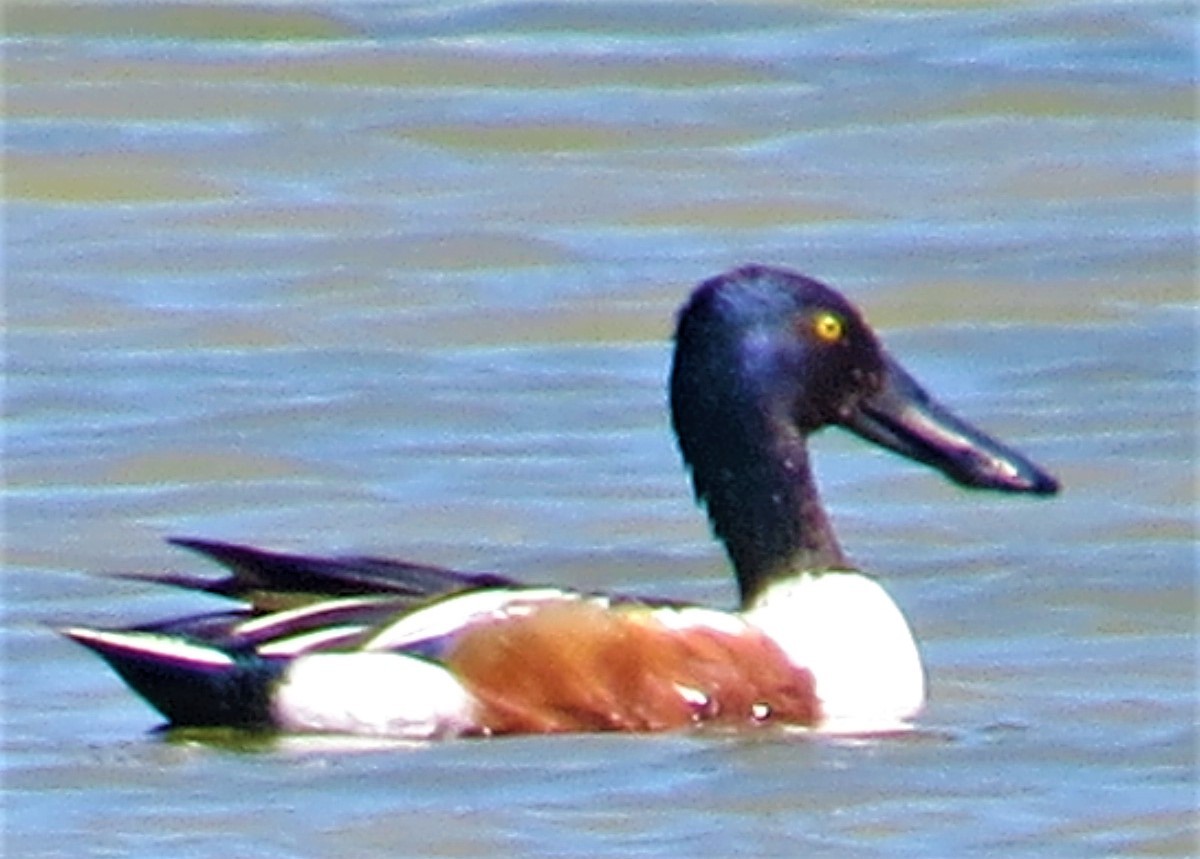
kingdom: Animalia
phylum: Chordata
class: Aves
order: Anseriformes
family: Anatidae
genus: Spatula
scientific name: Spatula clypeata
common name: Northern shoveler
